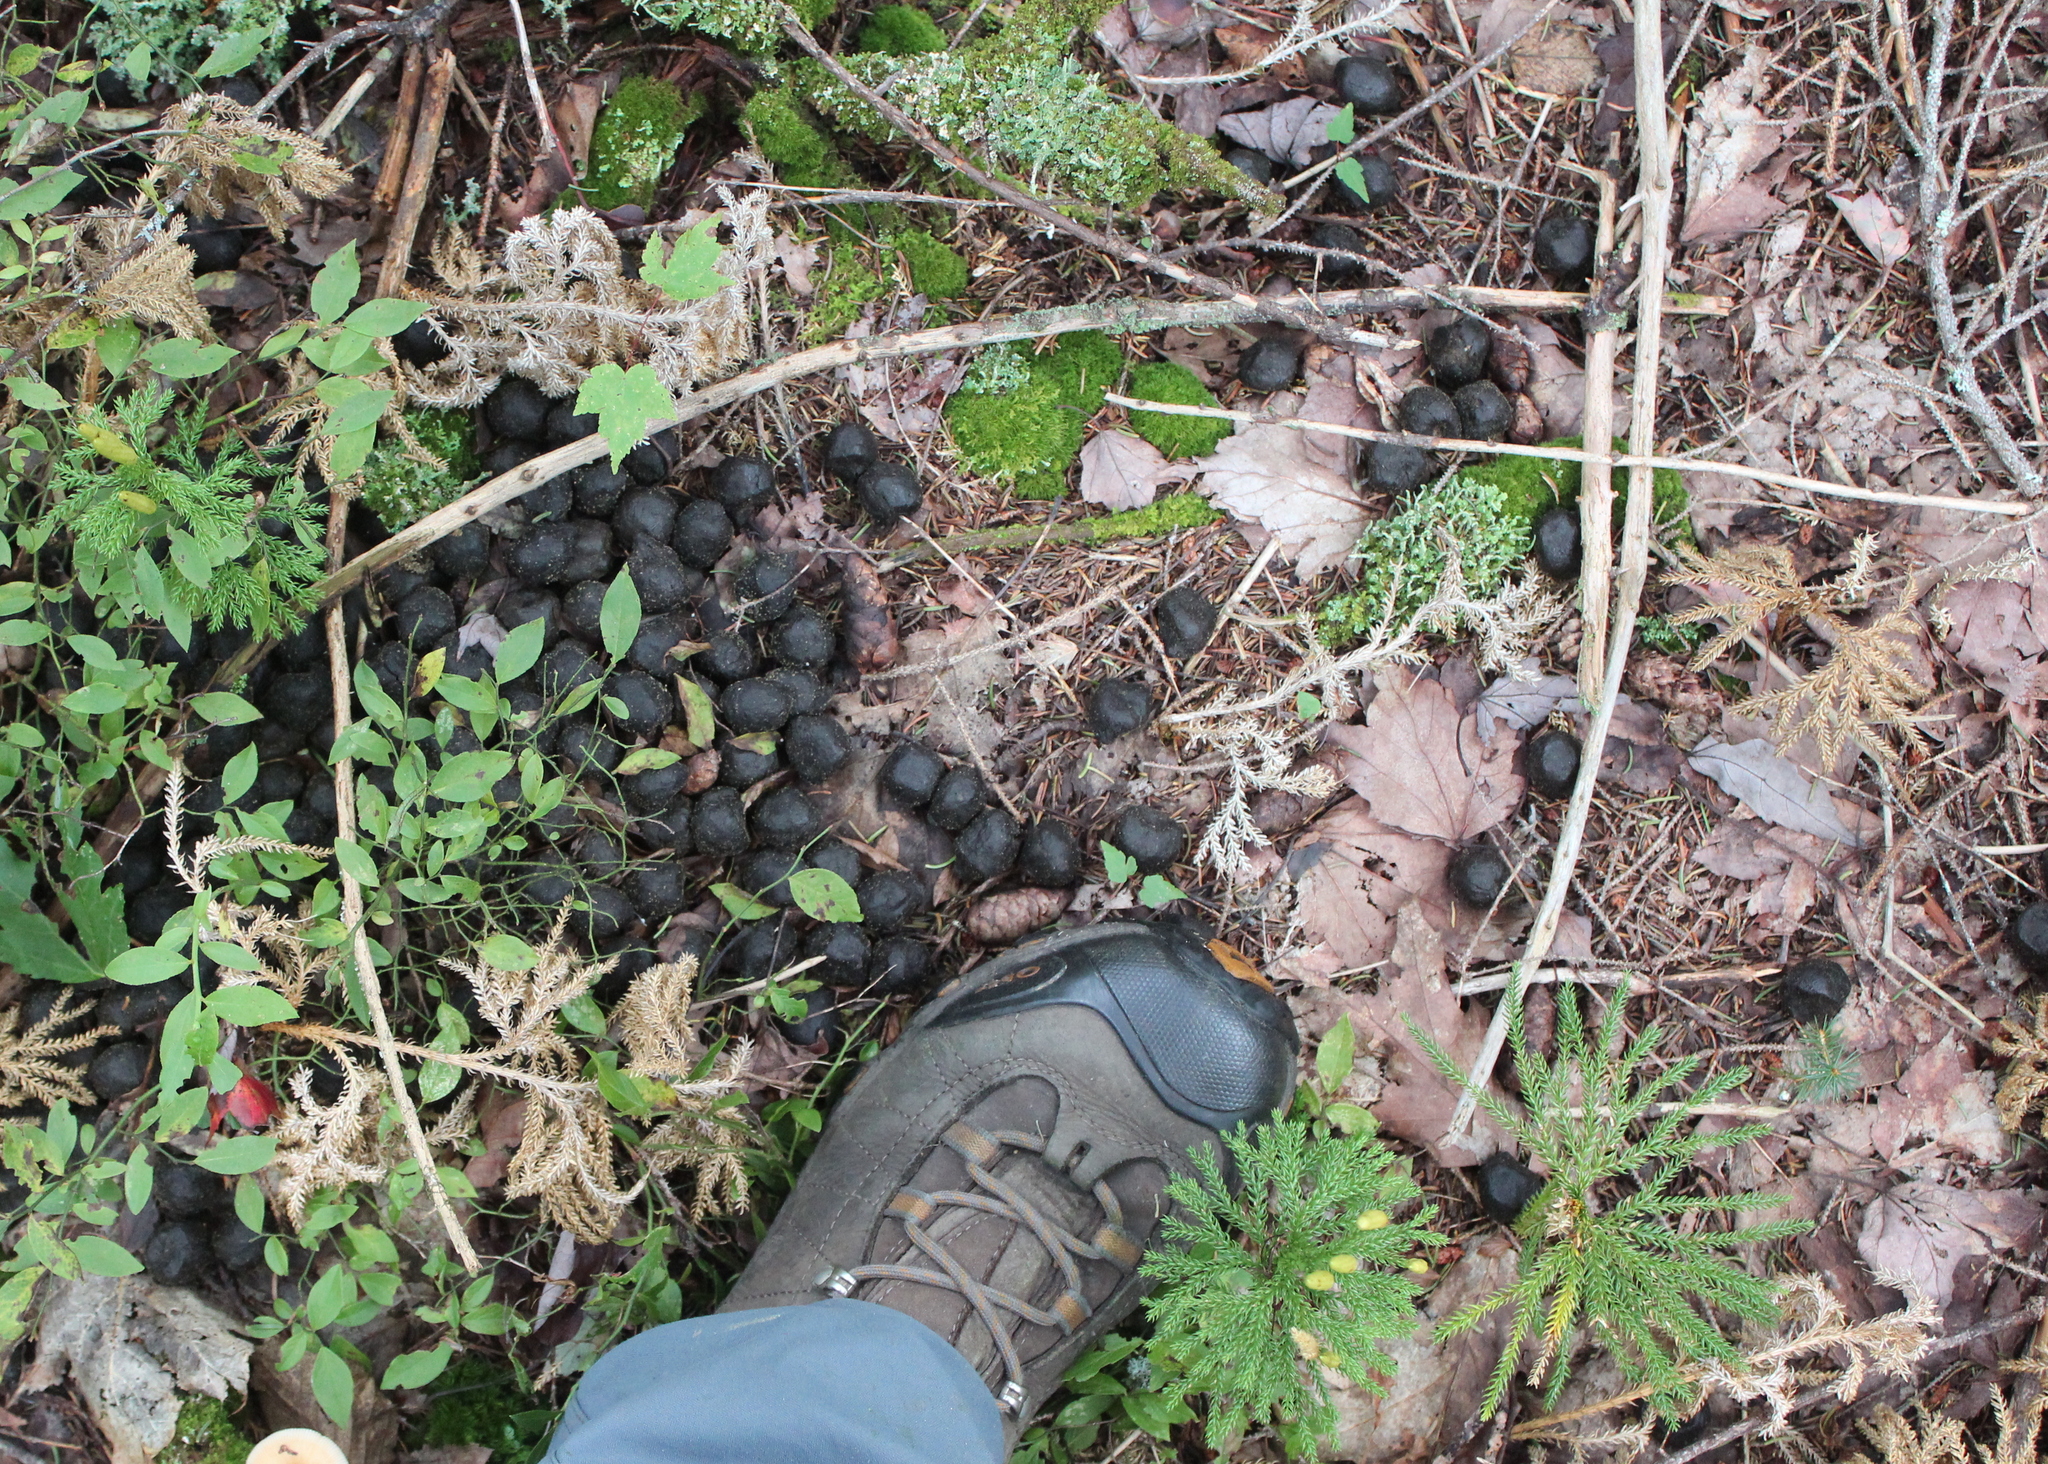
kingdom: Animalia
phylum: Chordata
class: Mammalia
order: Artiodactyla
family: Cervidae
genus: Alces
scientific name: Alces alces
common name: Moose
